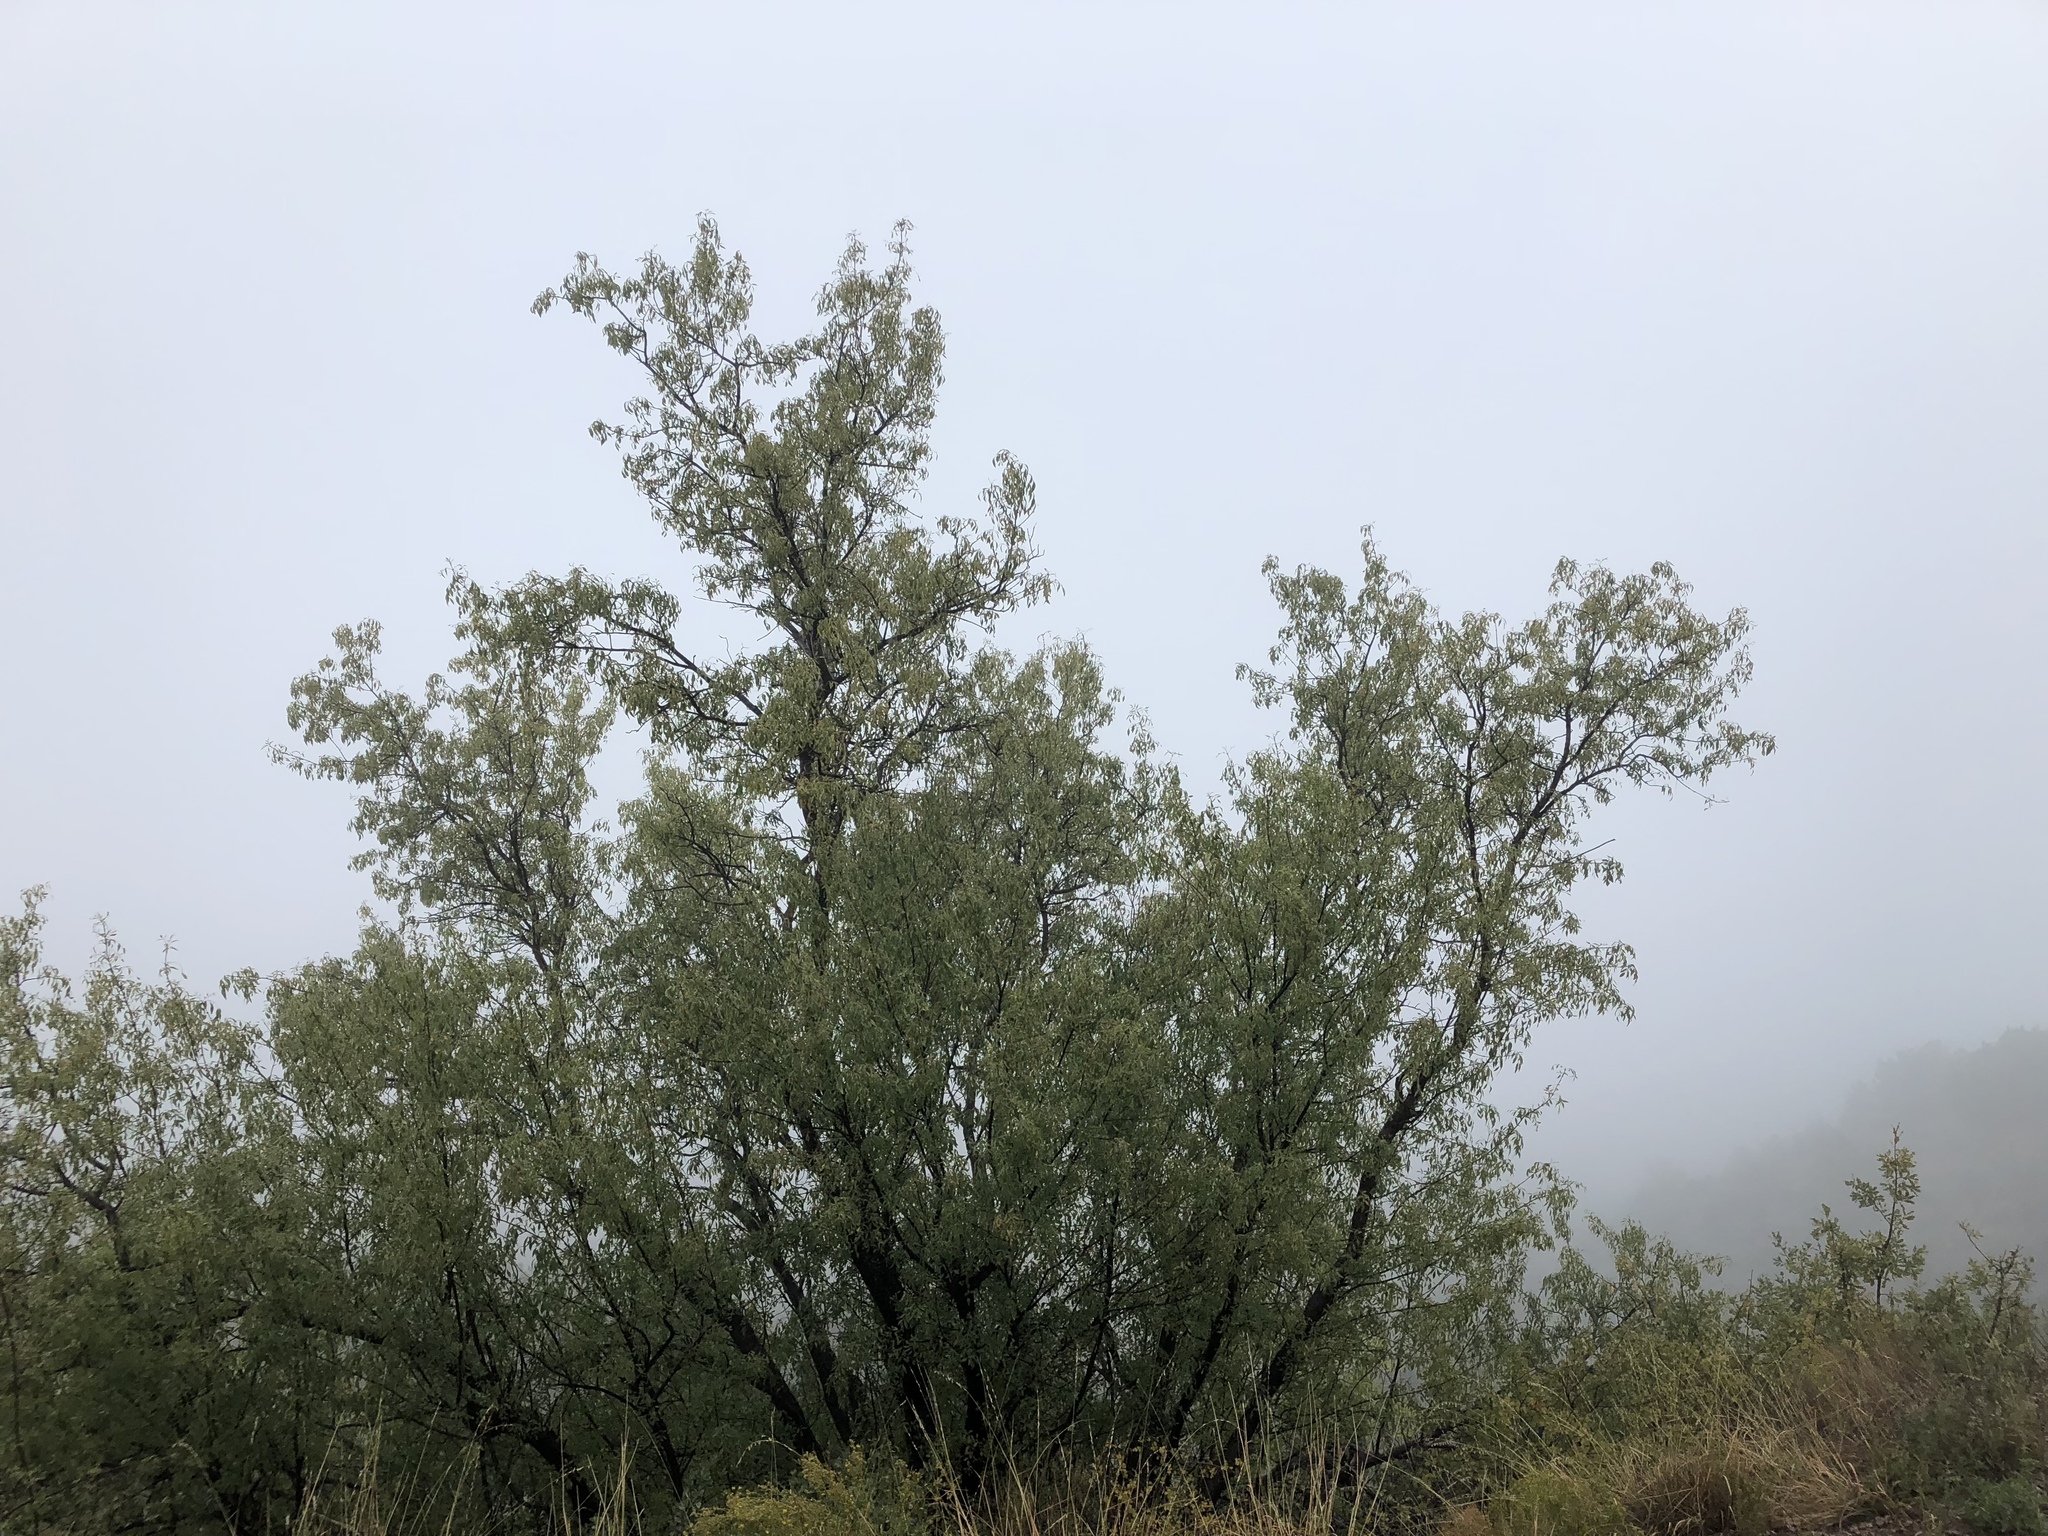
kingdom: Plantae
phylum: Tracheophyta
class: Magnoliopsida
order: Lamiales
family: Oleaceae
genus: Fraxinus
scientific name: Fraxinus cuspidata
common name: Fragrant ash
